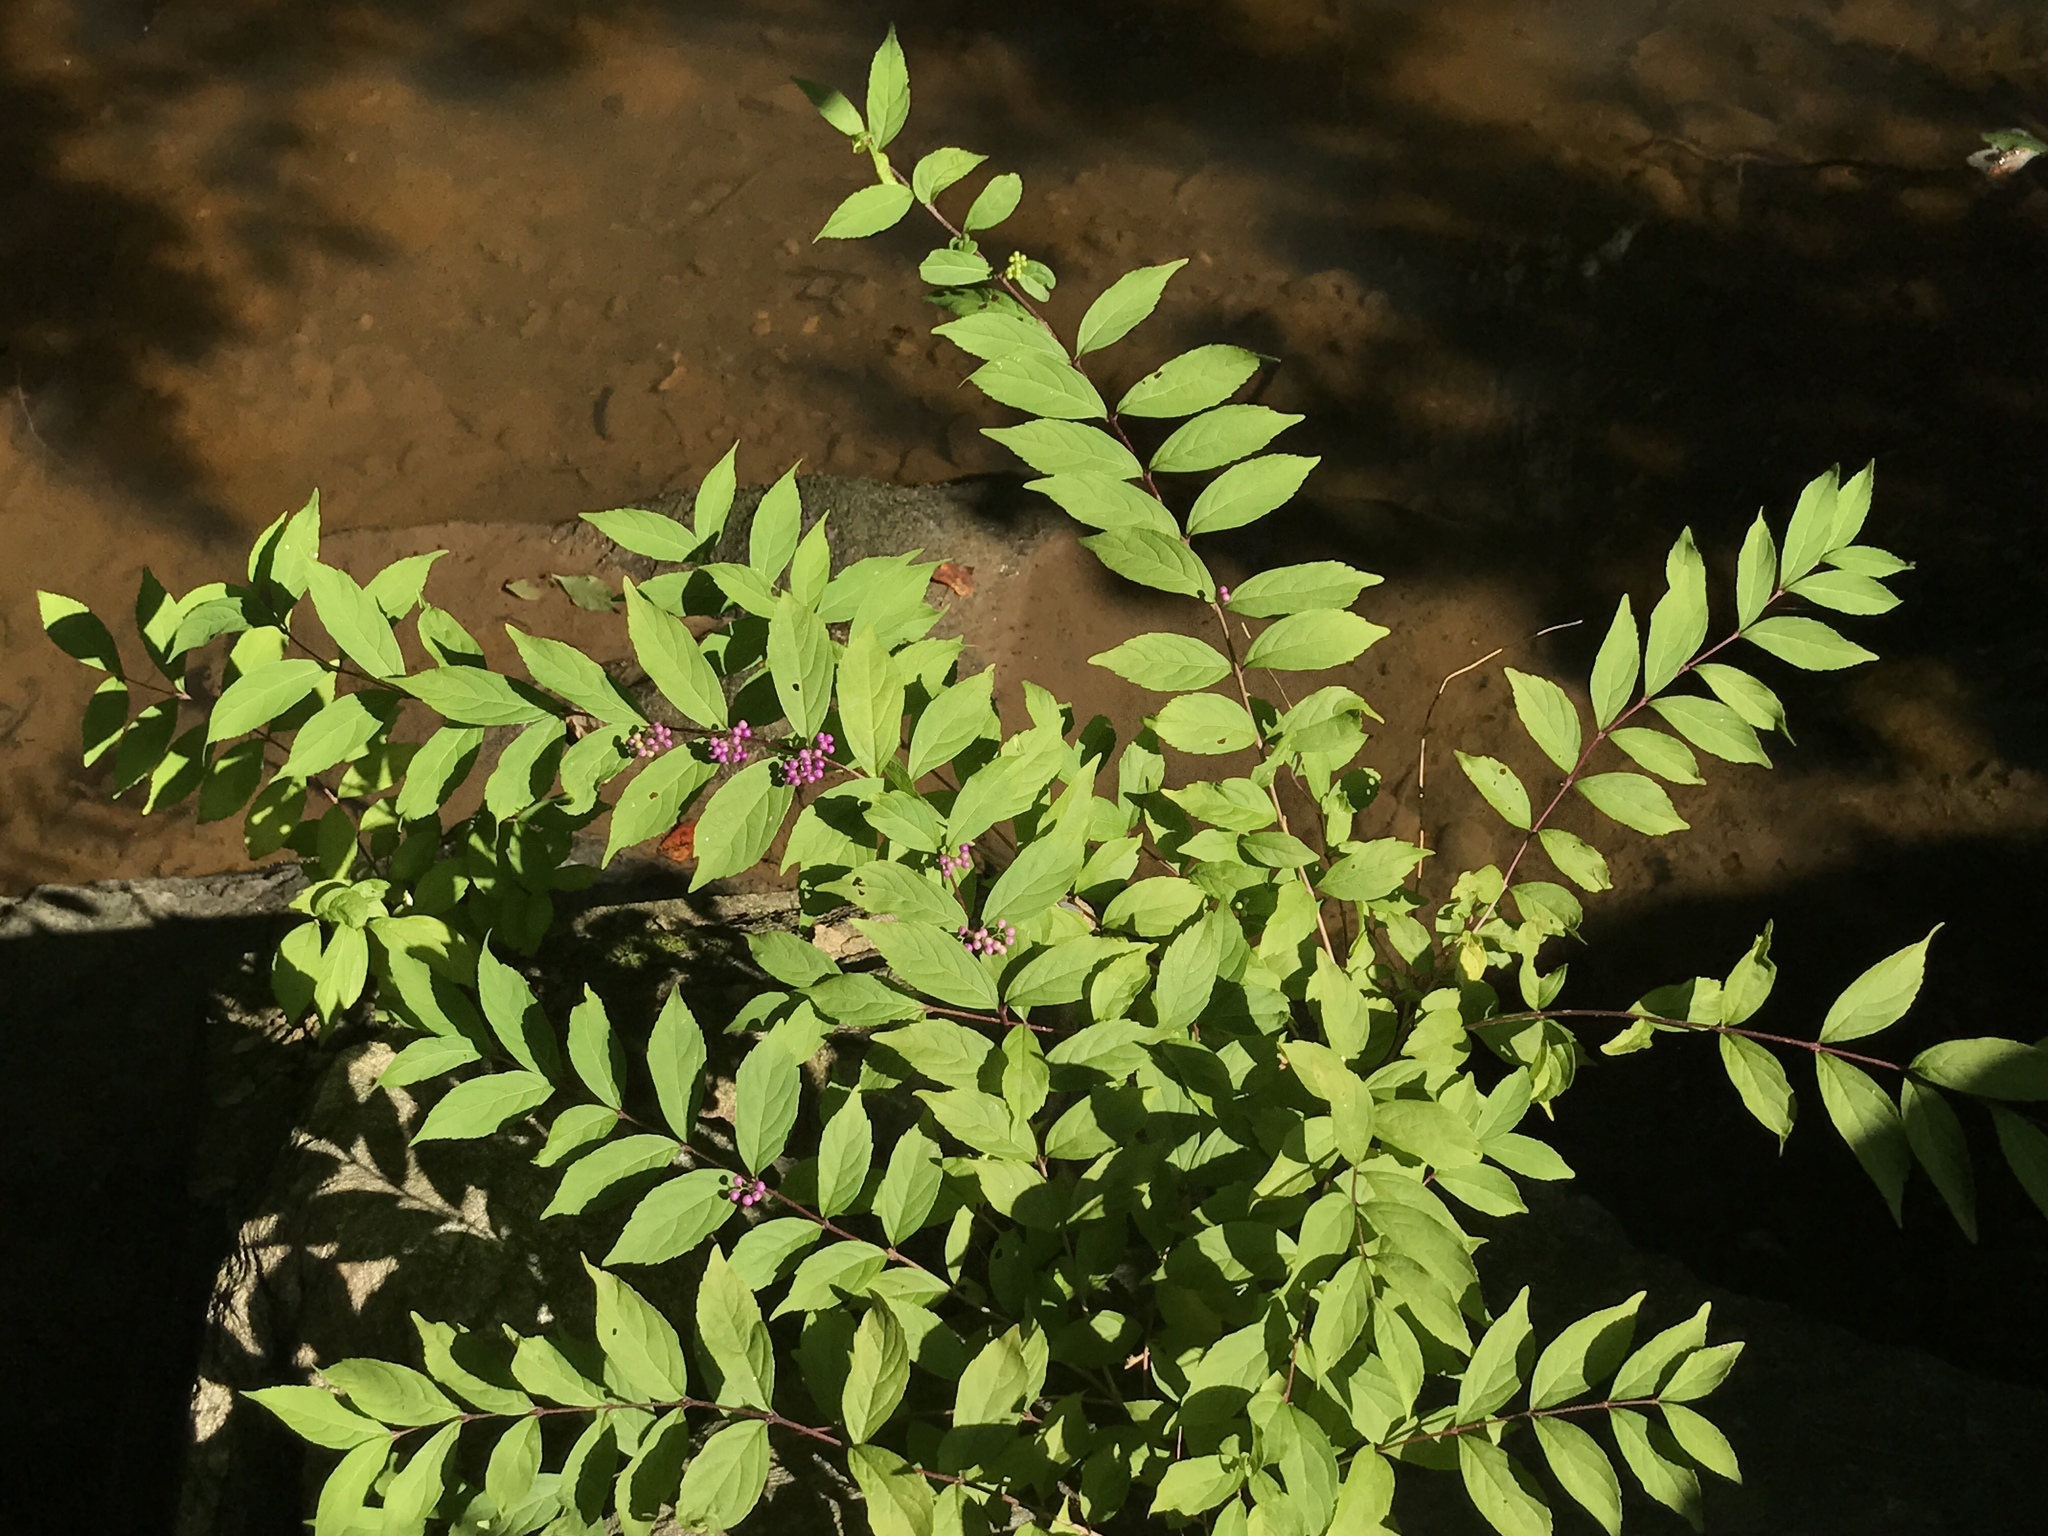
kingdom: Plantae
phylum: Tracheophyta
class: Magnoliopsida
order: Lamiales
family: Lamiaceae
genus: Callicarpa
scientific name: Callicarpa dichotoma
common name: Purple beauty-berry
